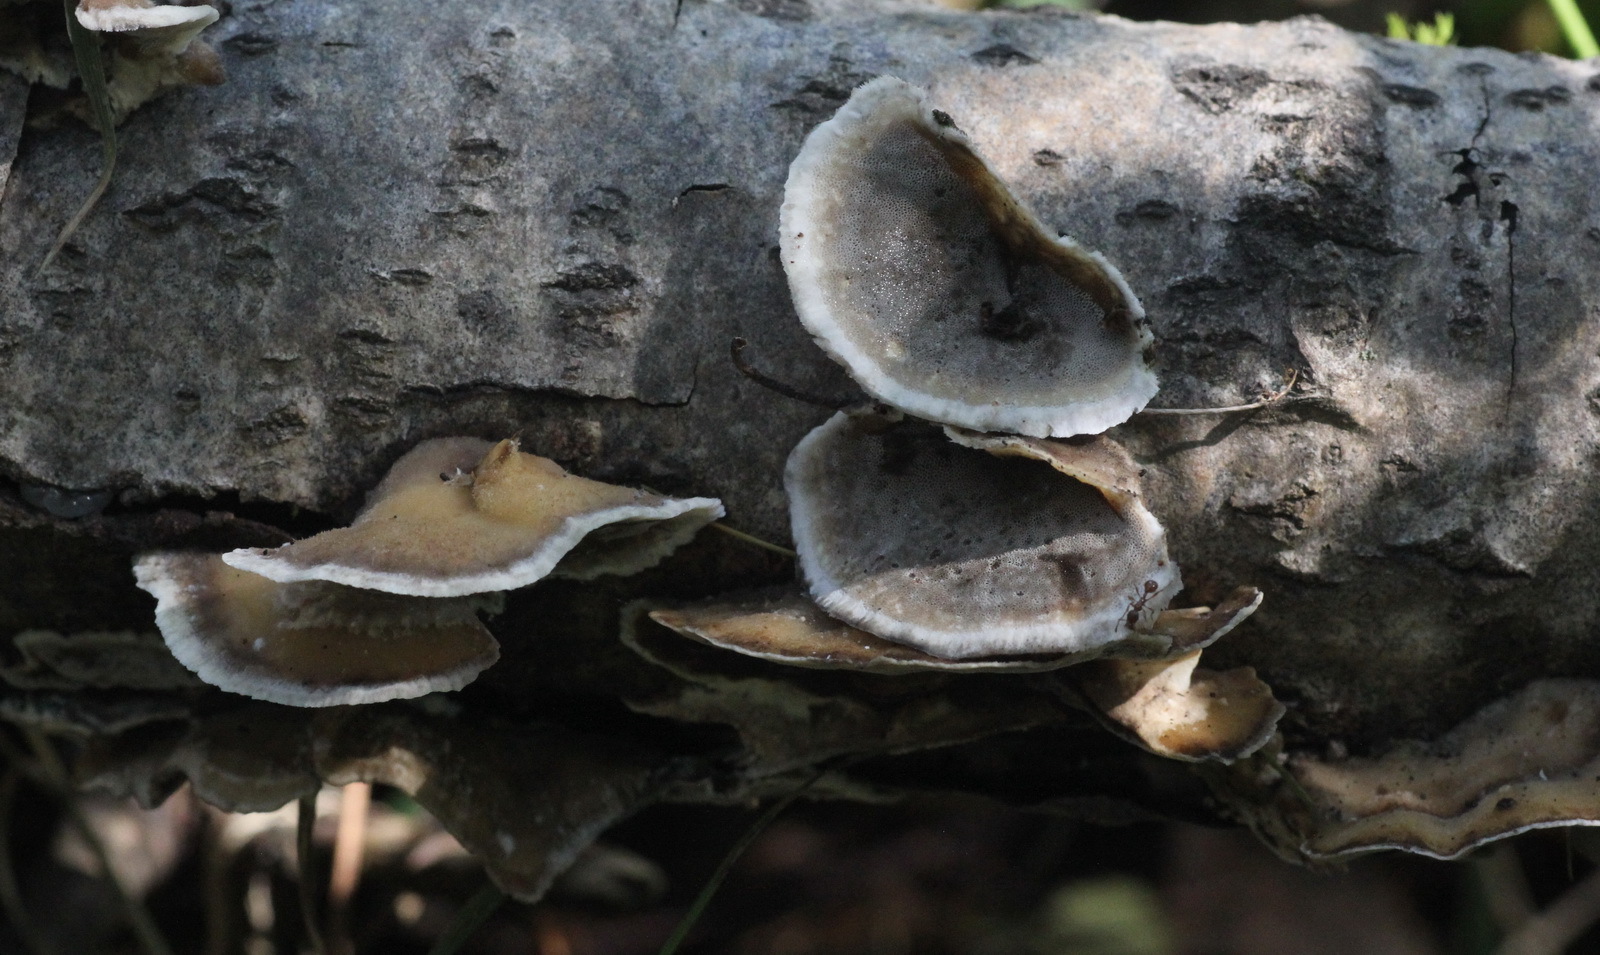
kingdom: Fungi
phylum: Basidiomycota
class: Agaricomycetes
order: Polyporales
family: Phanerochaetaceae
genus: Bjerkandera
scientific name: Bjerkandera adusta
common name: Smoky bracket
